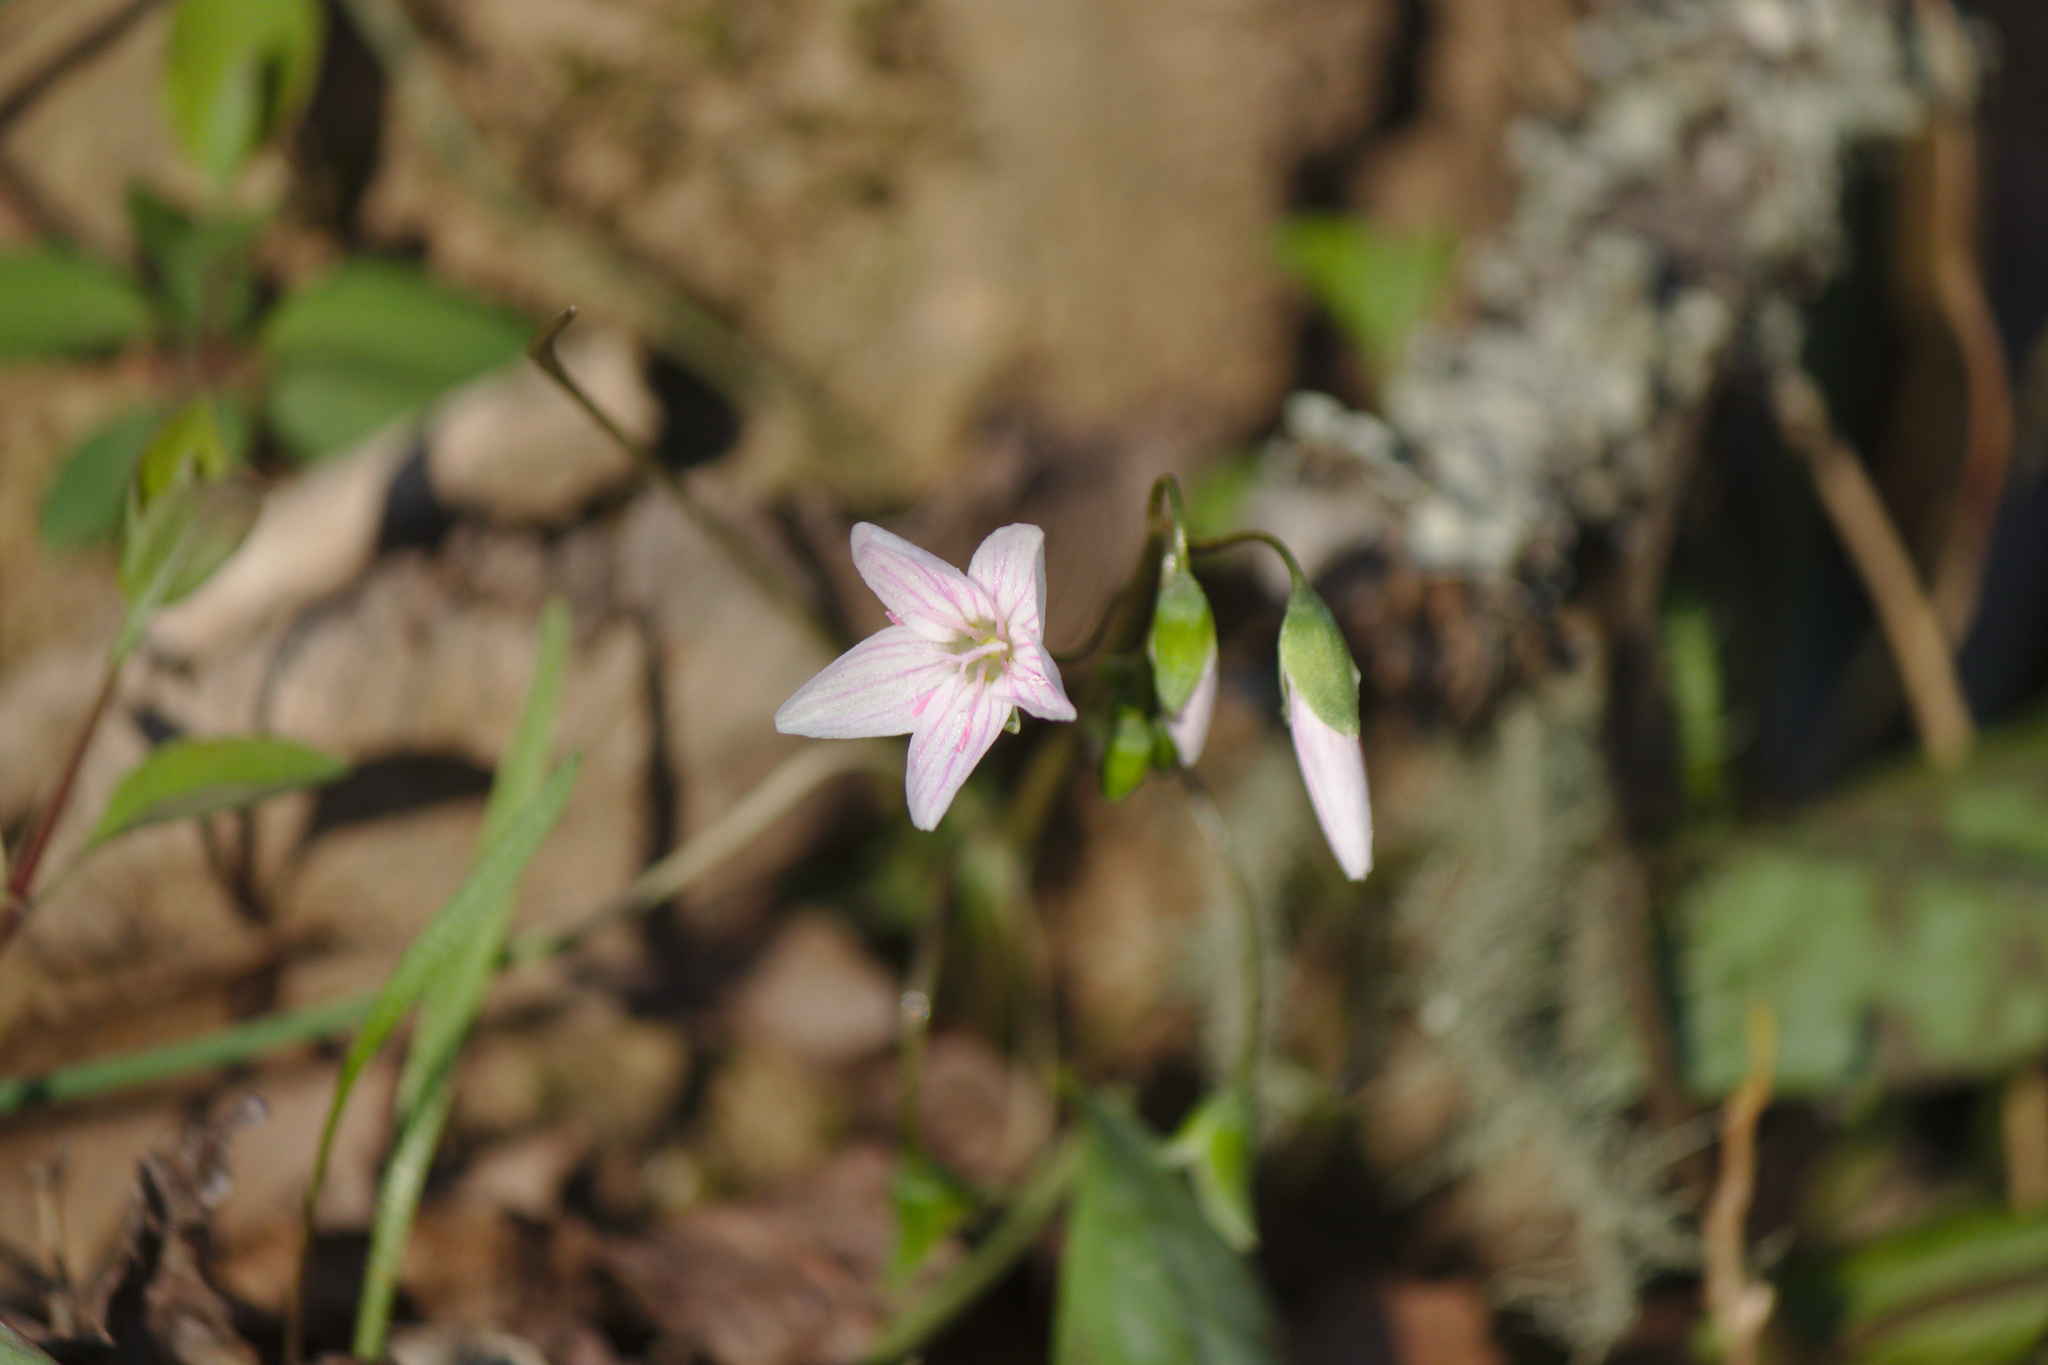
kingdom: Plantae
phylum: Tracheophyta
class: Magnoliopsida
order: Caryophyllales
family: Montiaceae
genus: Claytonia
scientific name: Claytonia virginica
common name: Virginia springbeauty
